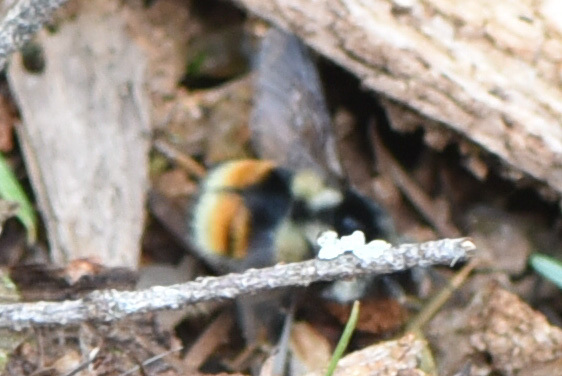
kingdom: Animalia
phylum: Arthropoda
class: Insecta
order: Hymenoptera
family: Apidae
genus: Bombus
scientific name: Bombus vancouverensis
